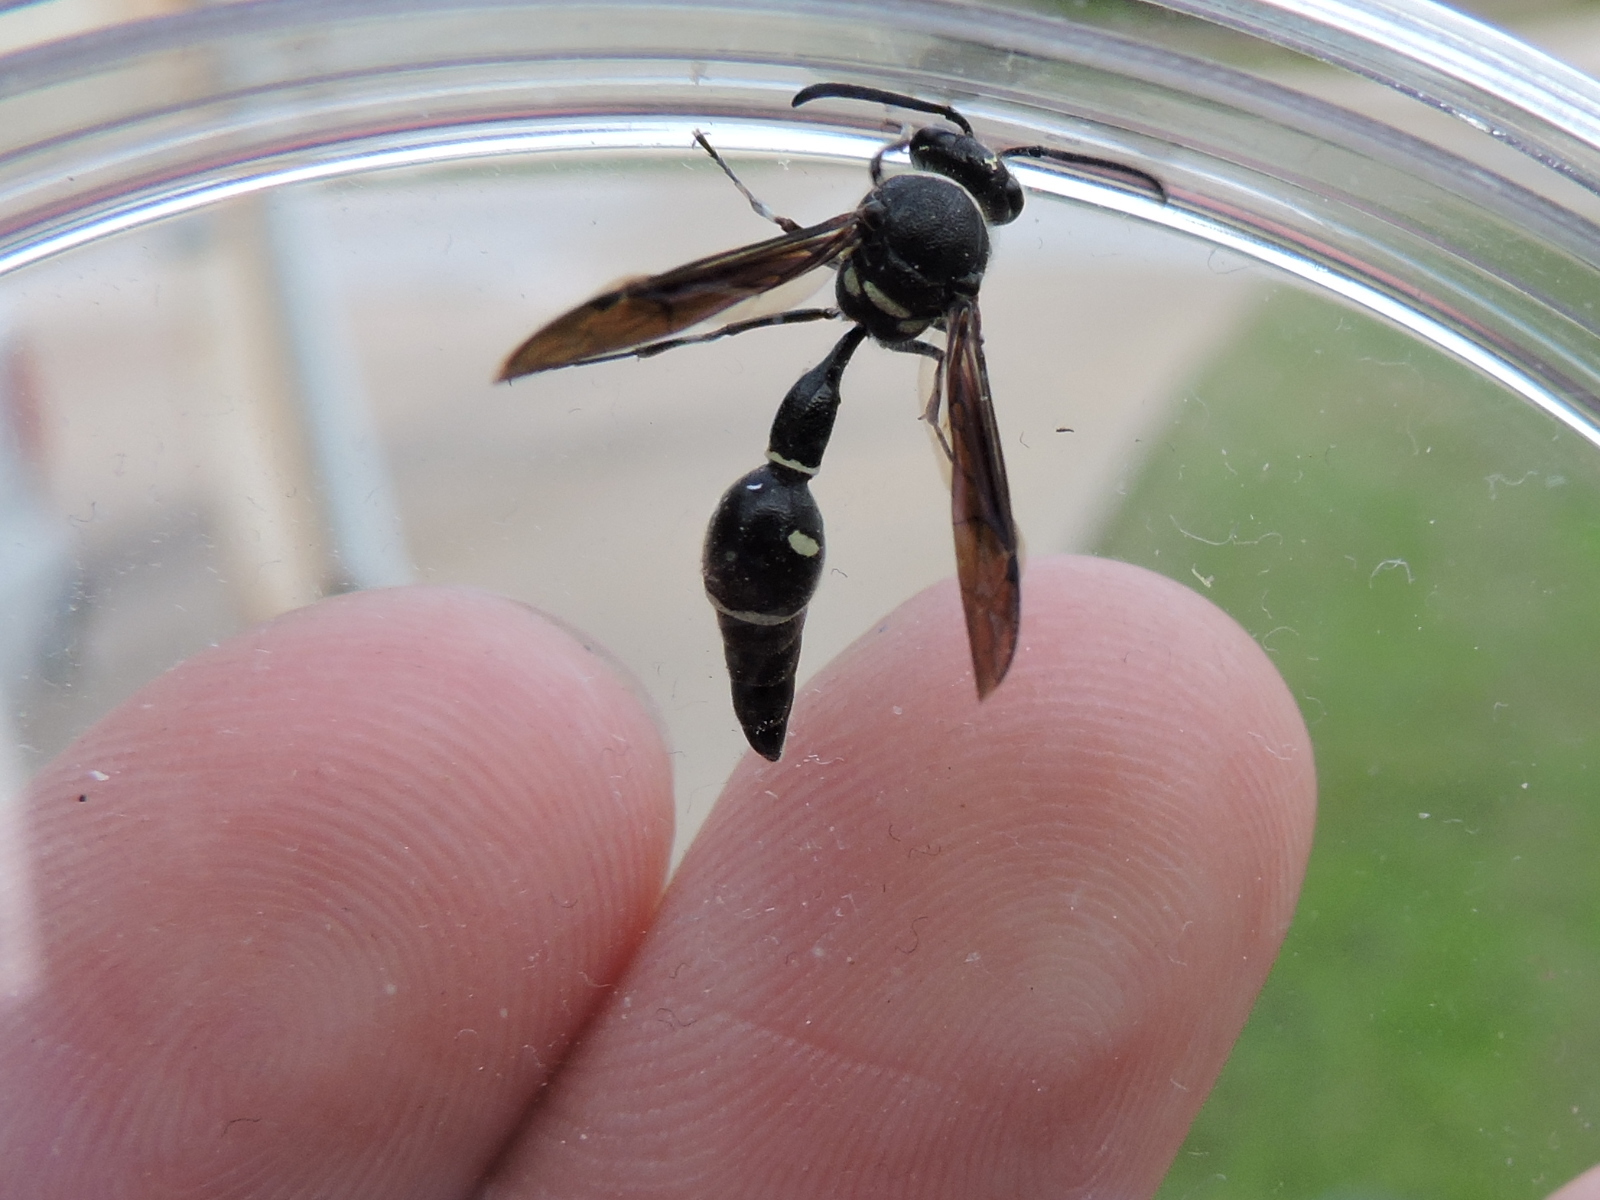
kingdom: Animalia
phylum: Arthropoda
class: Insecta
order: Hymenoptera
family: Vespidae
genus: Eumenes
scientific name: Eumenes fraternus
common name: Fraternal potter wasp
